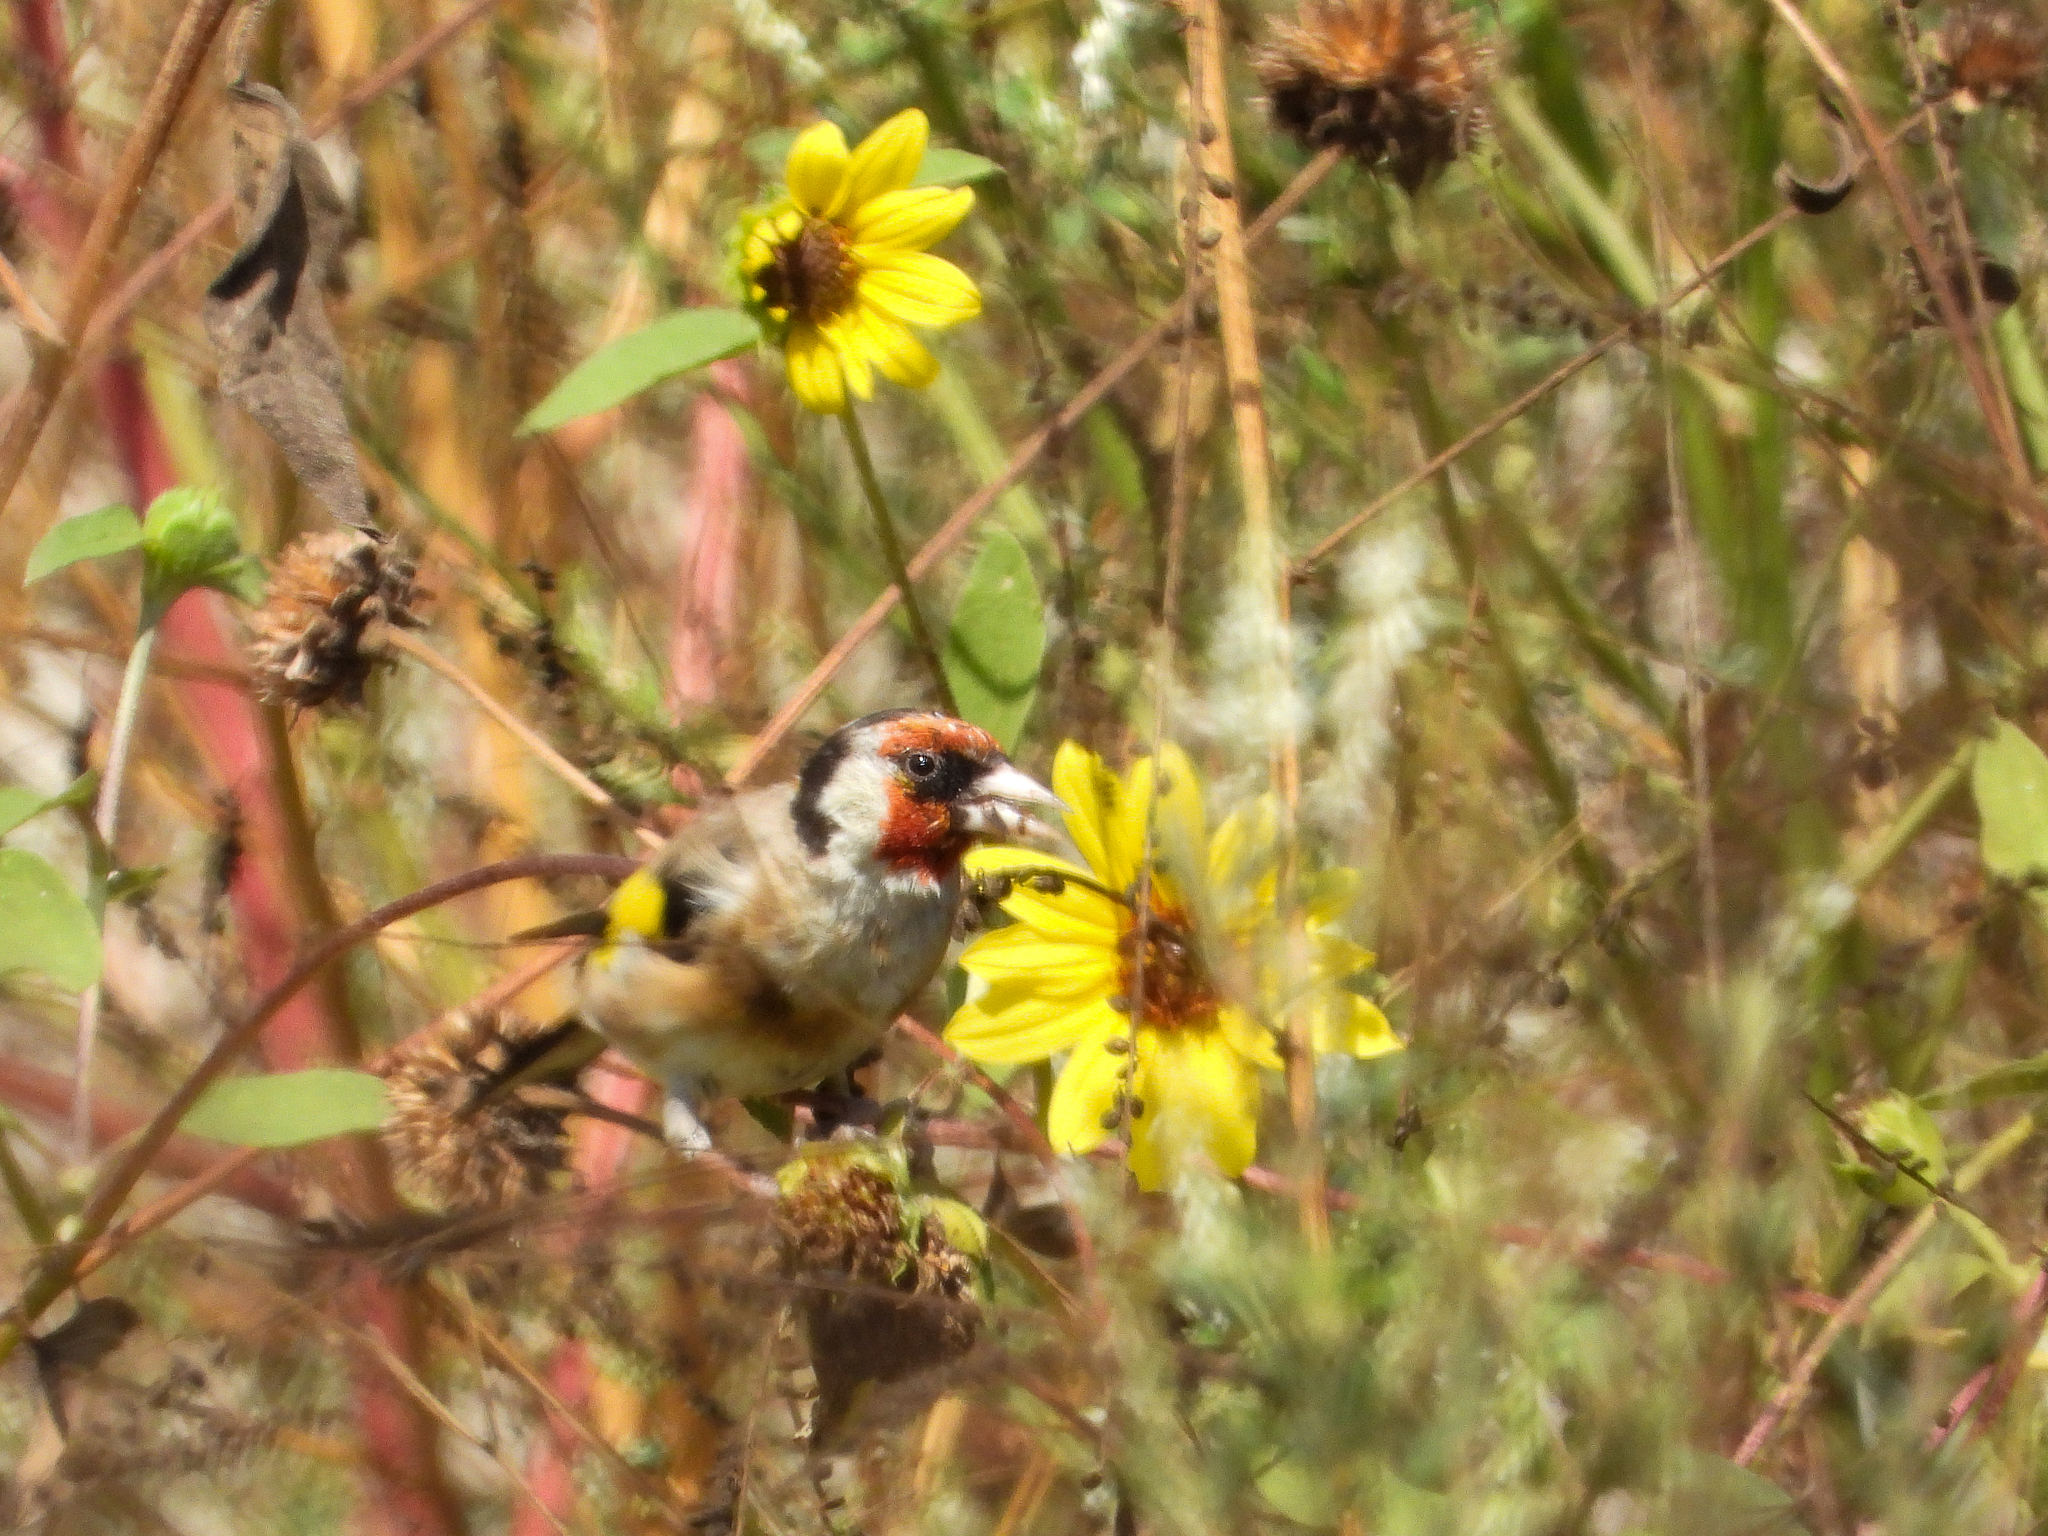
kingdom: Animalia
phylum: Chordata
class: Aves
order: Passeriformes
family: Fringillidae
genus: Carduelis
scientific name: Carduelis carduelis
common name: European goldfinch
